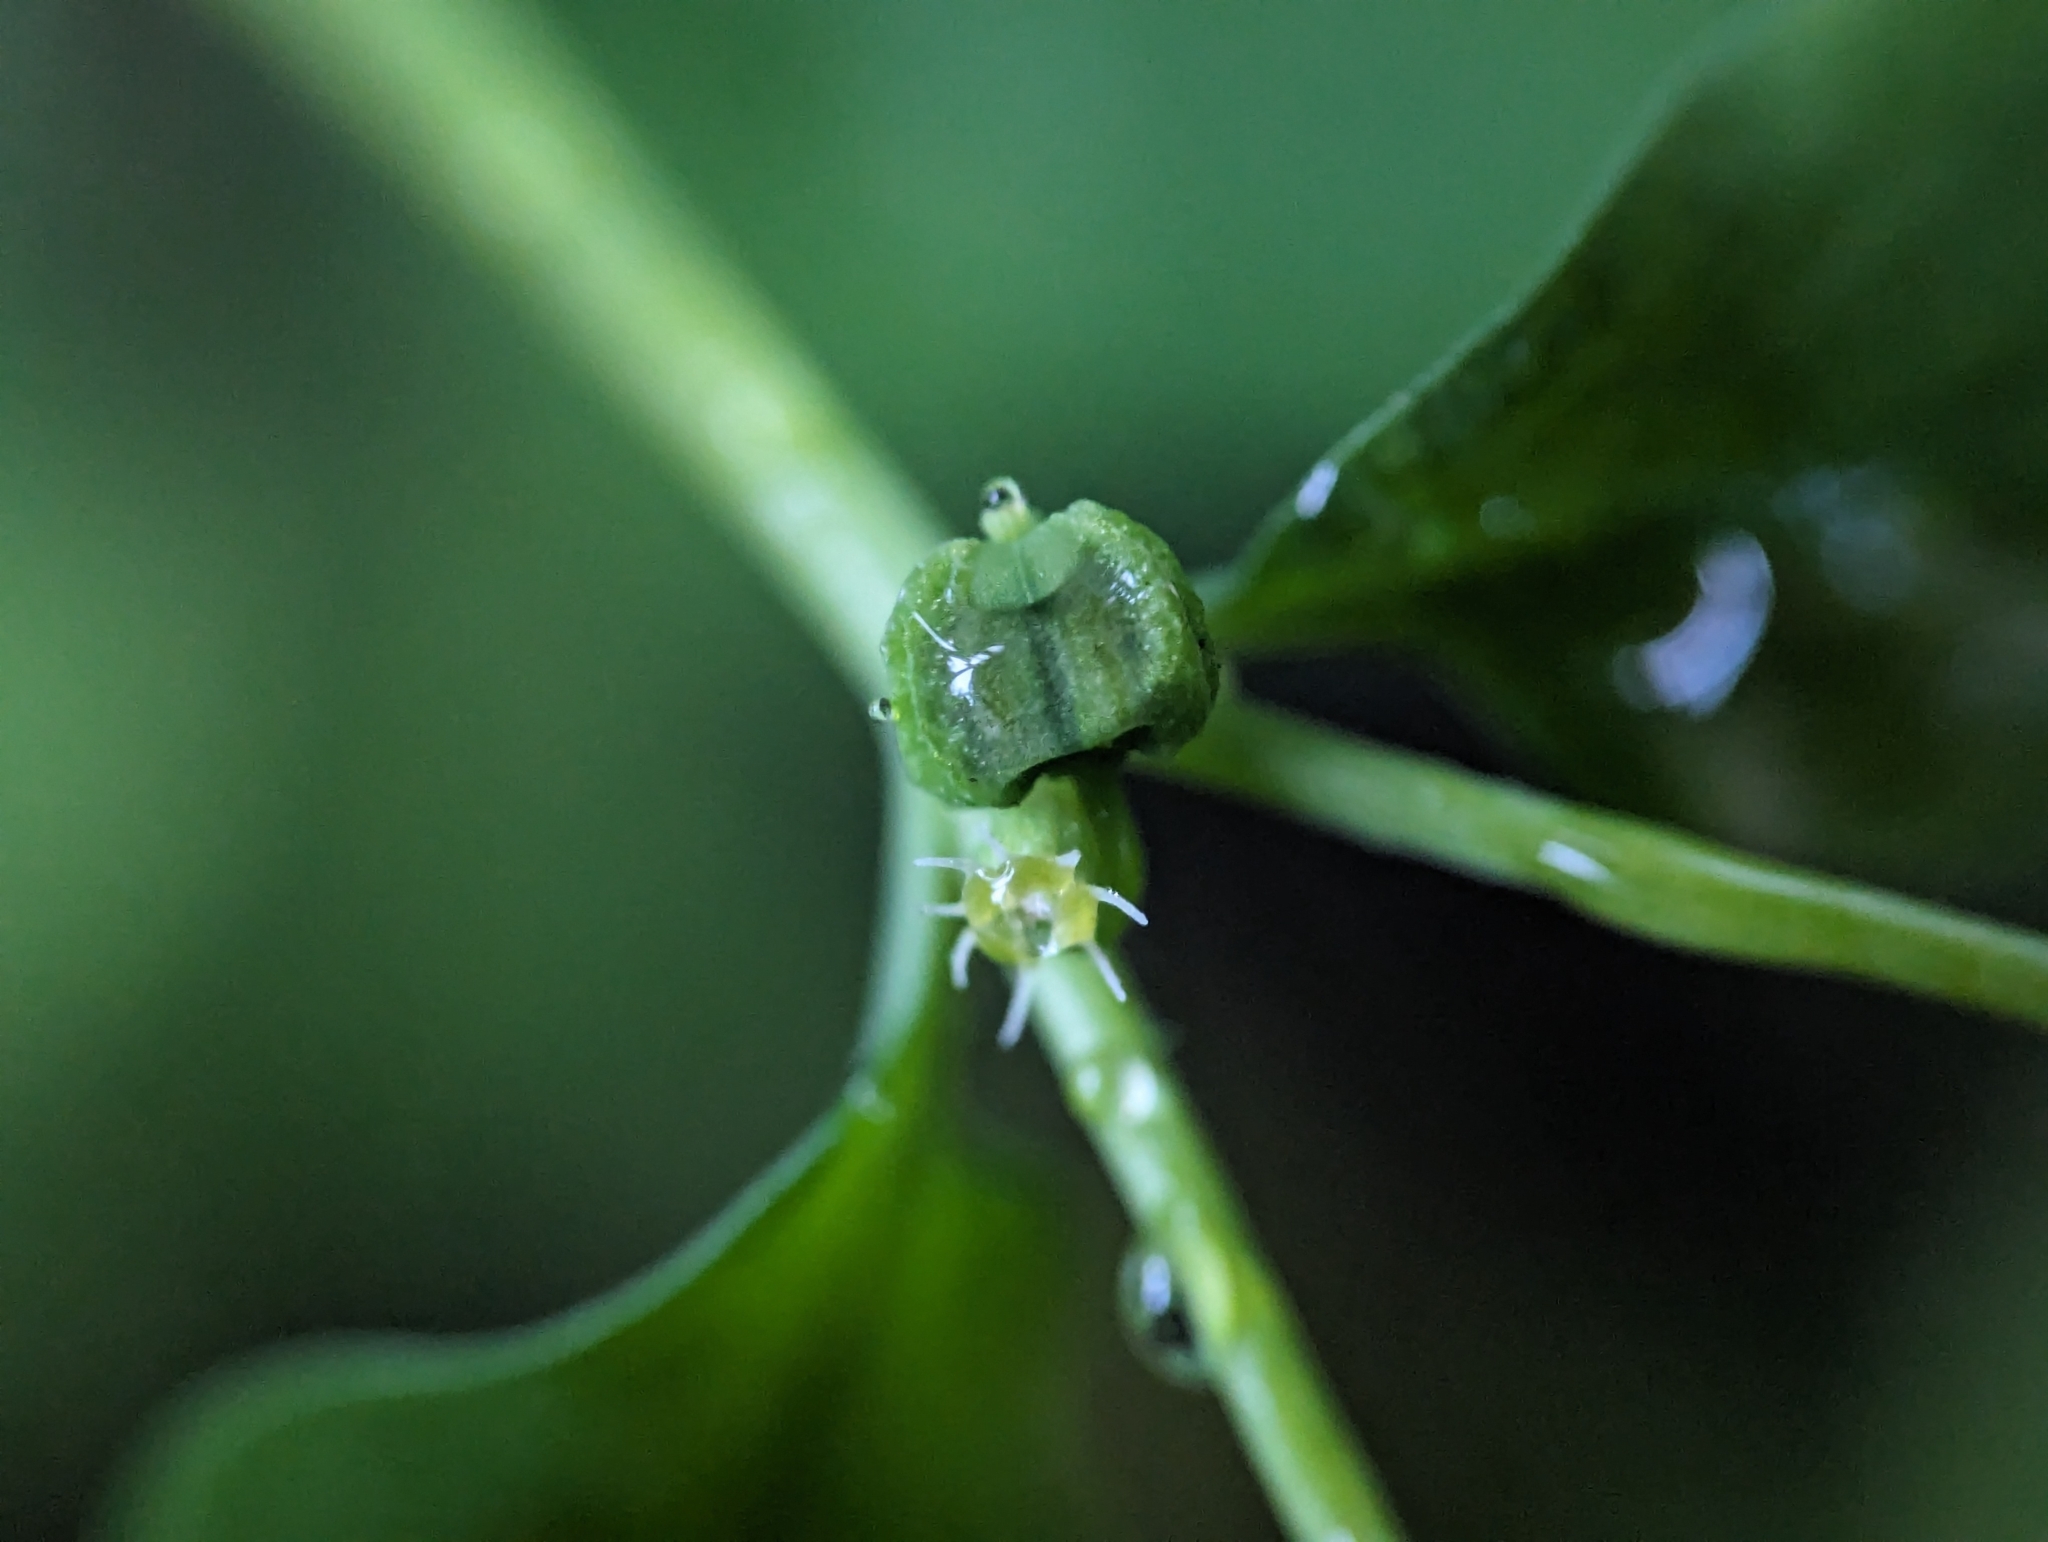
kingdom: Plantae
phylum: Tracheophyta
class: Magnoliopsida
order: Malpighiales
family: Euphorbiaceae
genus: Euphorbia
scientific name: Euphorbia peplus
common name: Petty spurge
